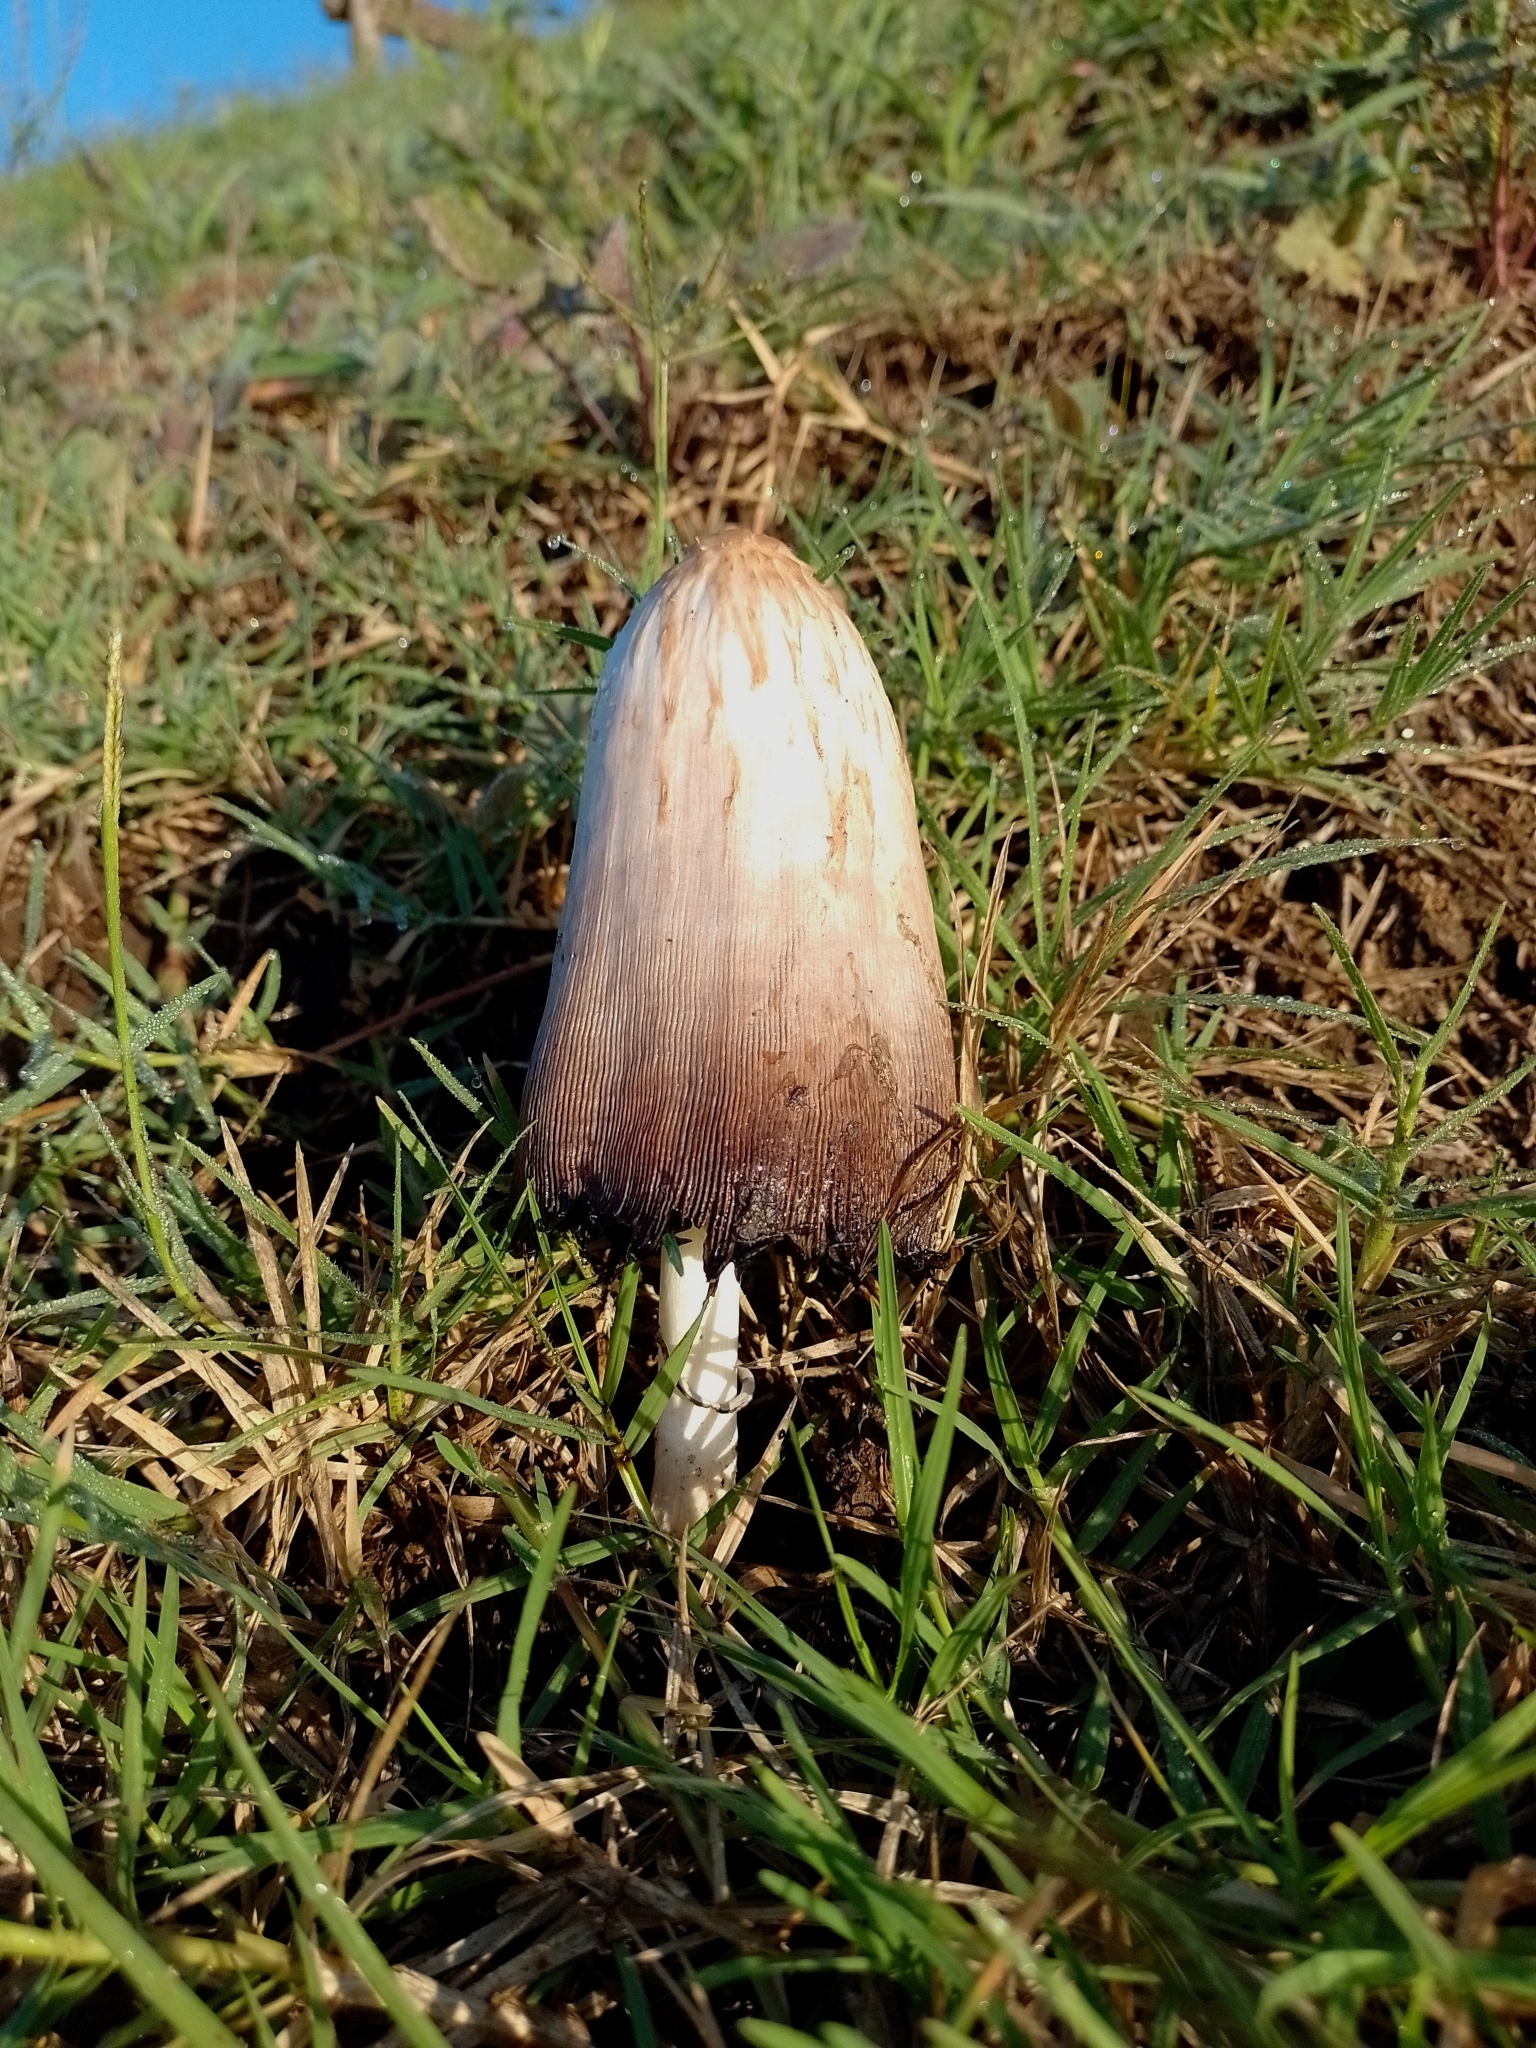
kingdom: Fungi
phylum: Basidiomycota
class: Agaricomycetes
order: Agaricales
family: Agaricaceae
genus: Coprinus
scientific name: Coprinus comatus
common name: Lawyer's wig
